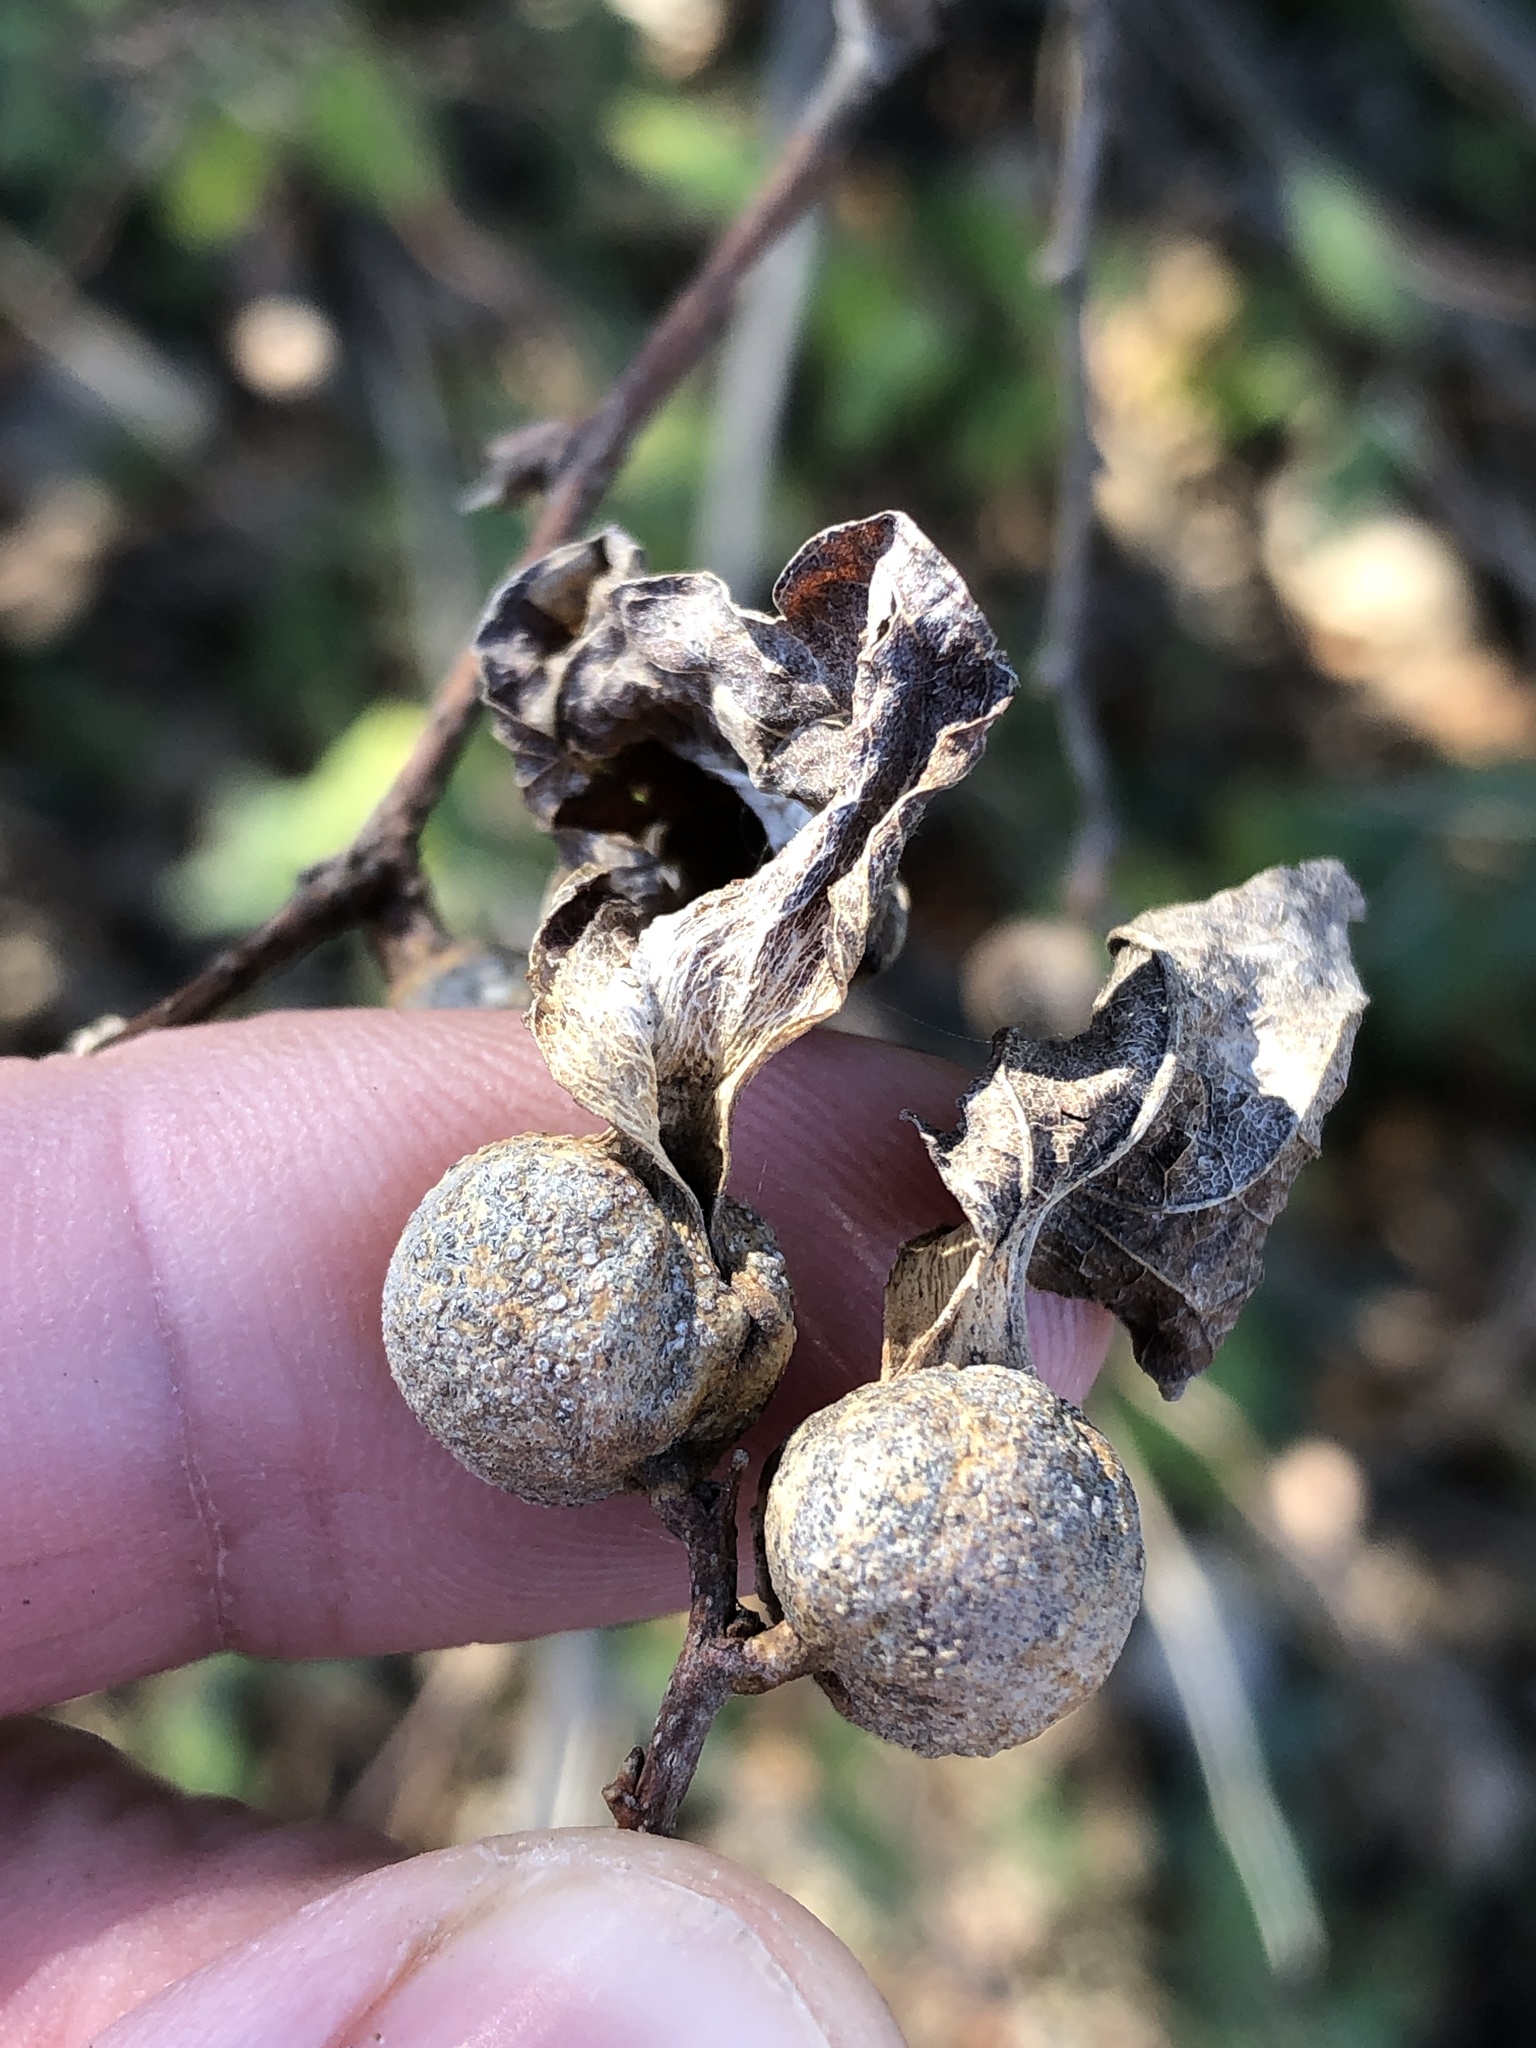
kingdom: Animalia
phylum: Arthropoda
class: Insecta
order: Hemiptera
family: Aphalaridae
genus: Pachypsylla
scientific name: Pachypsylla venusta
